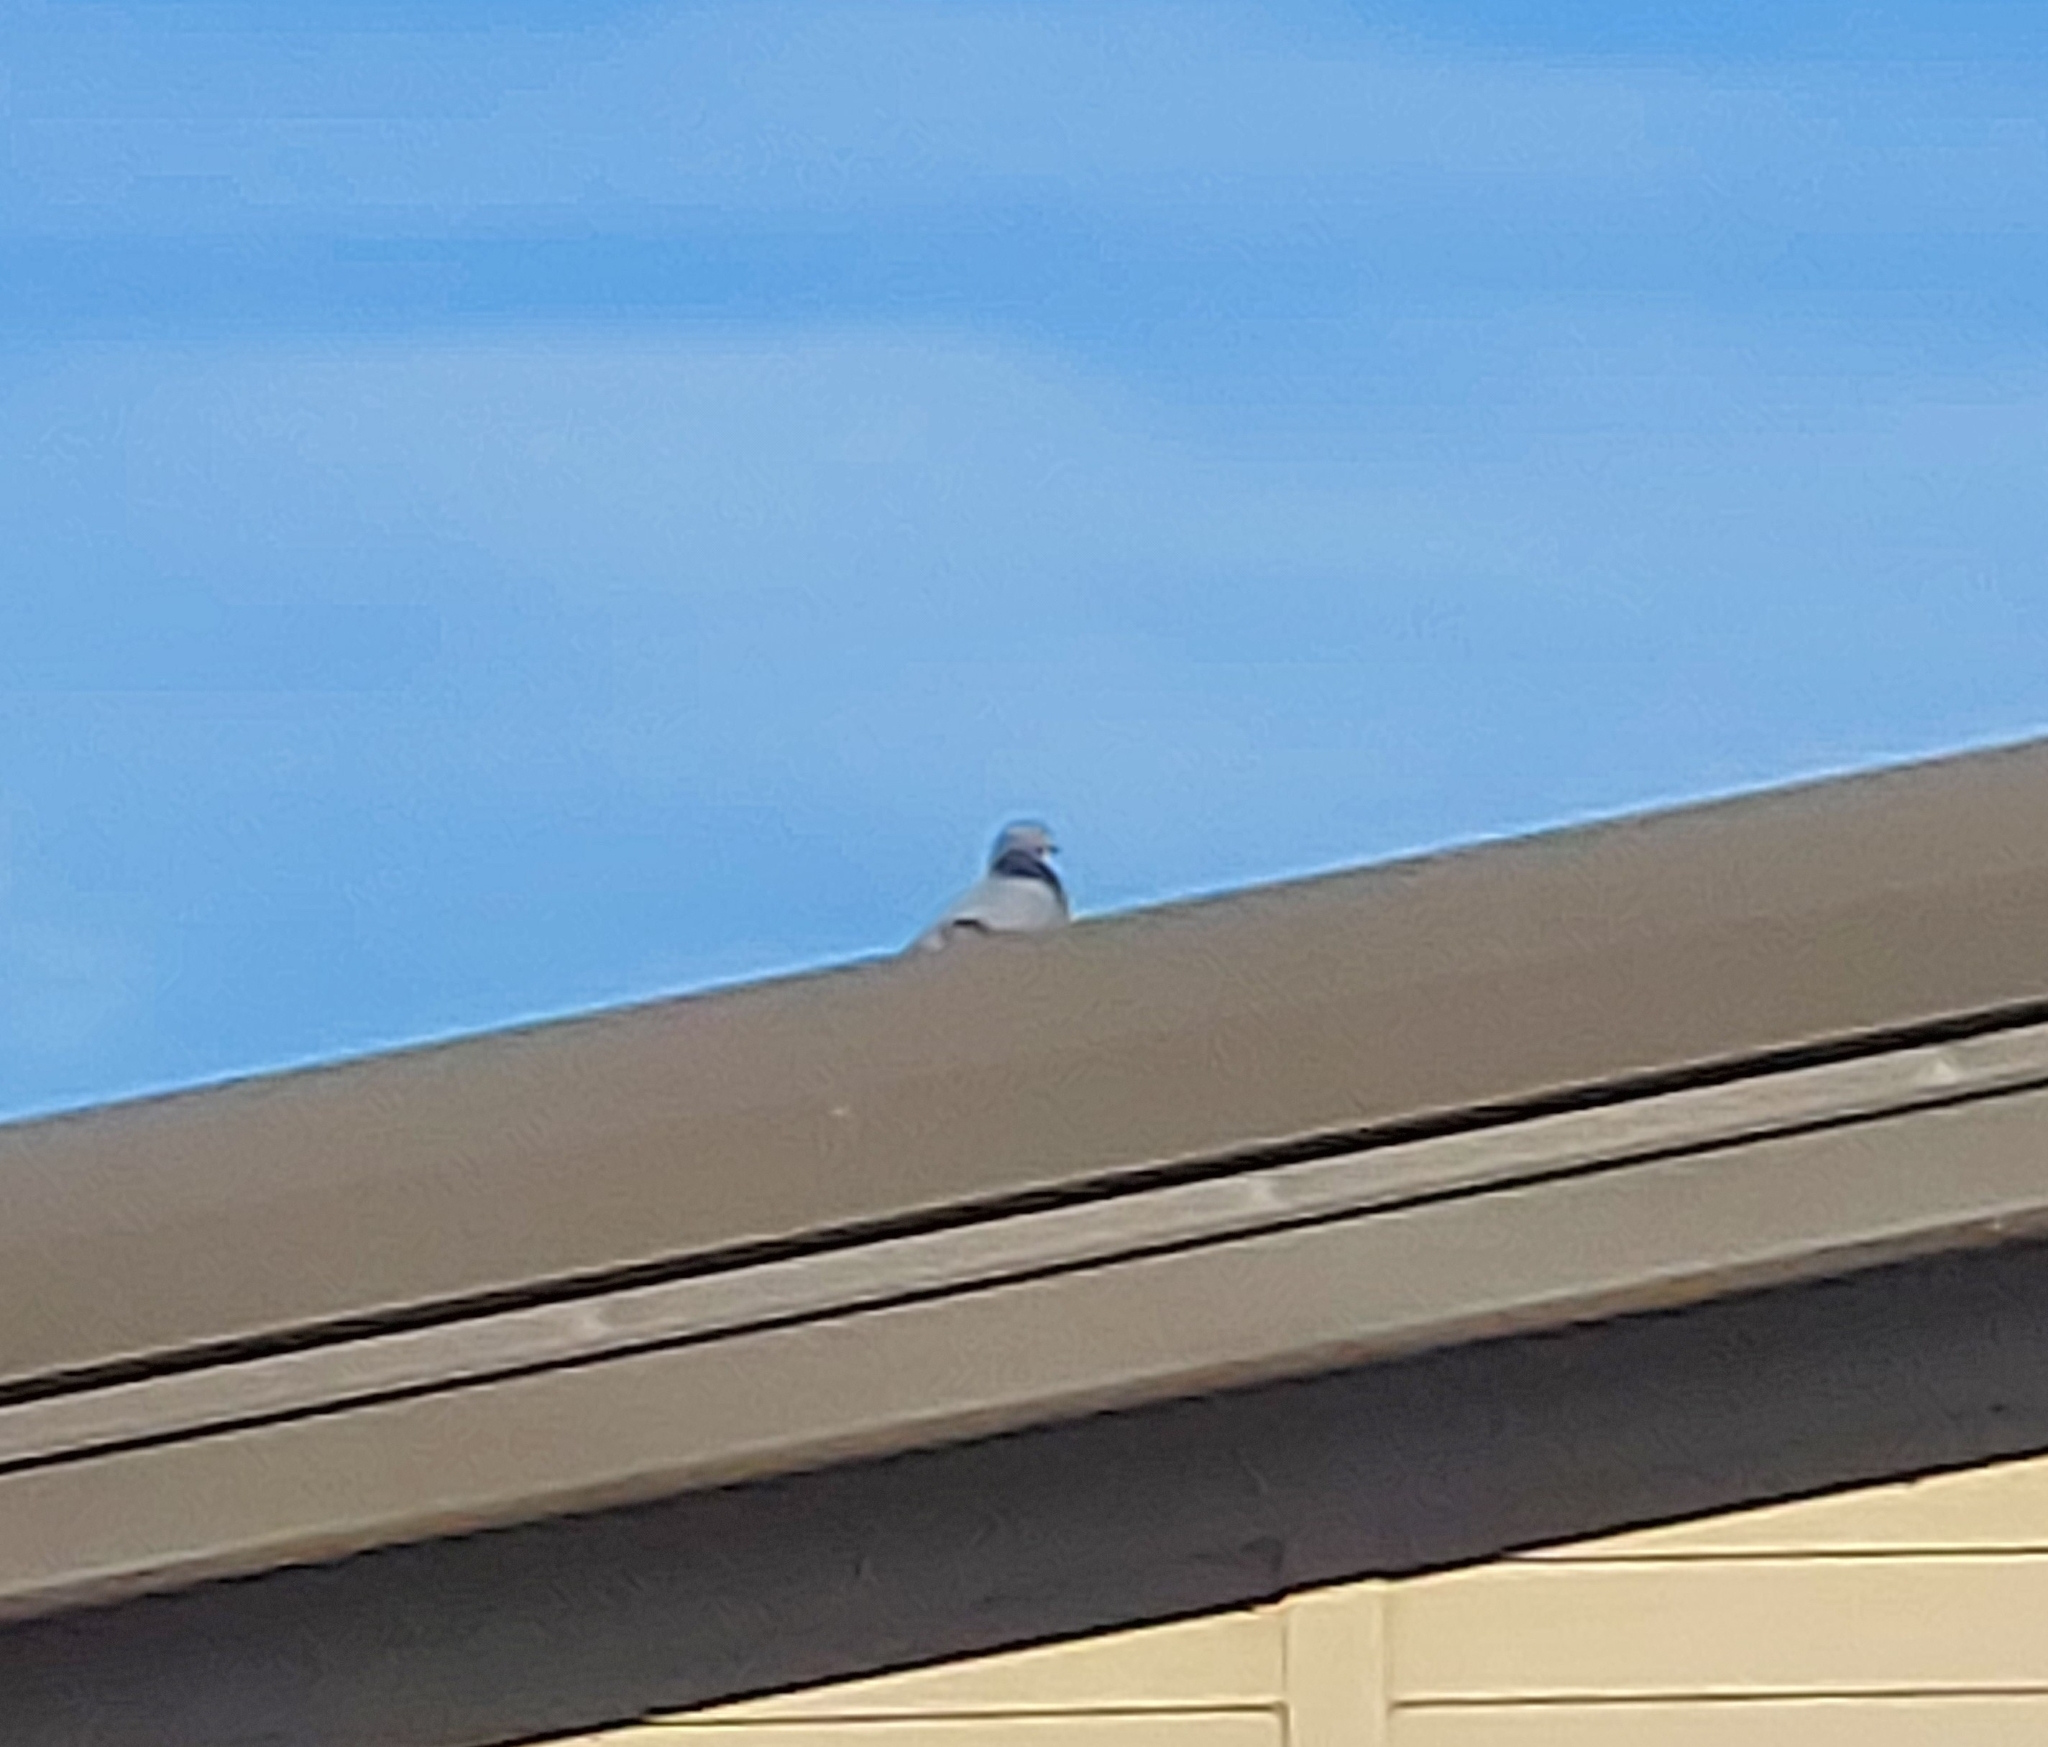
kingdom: Animalia
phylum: Chordata
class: Aves
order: Columbiformes
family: Columbidae
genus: Columba
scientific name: Columba livia
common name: Rock pigeon
